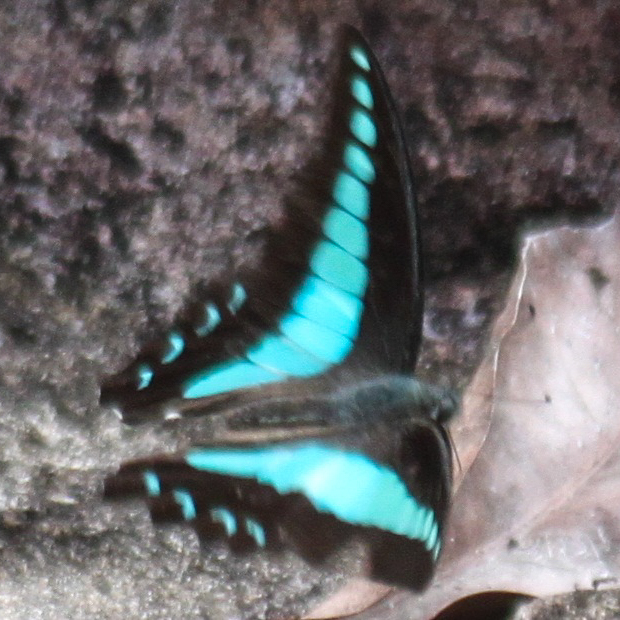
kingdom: Fungi
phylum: Ascomycota
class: Sordariomycetes
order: Microascales
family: Microascaceae
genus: Graphium
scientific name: Graphium sarpedon
